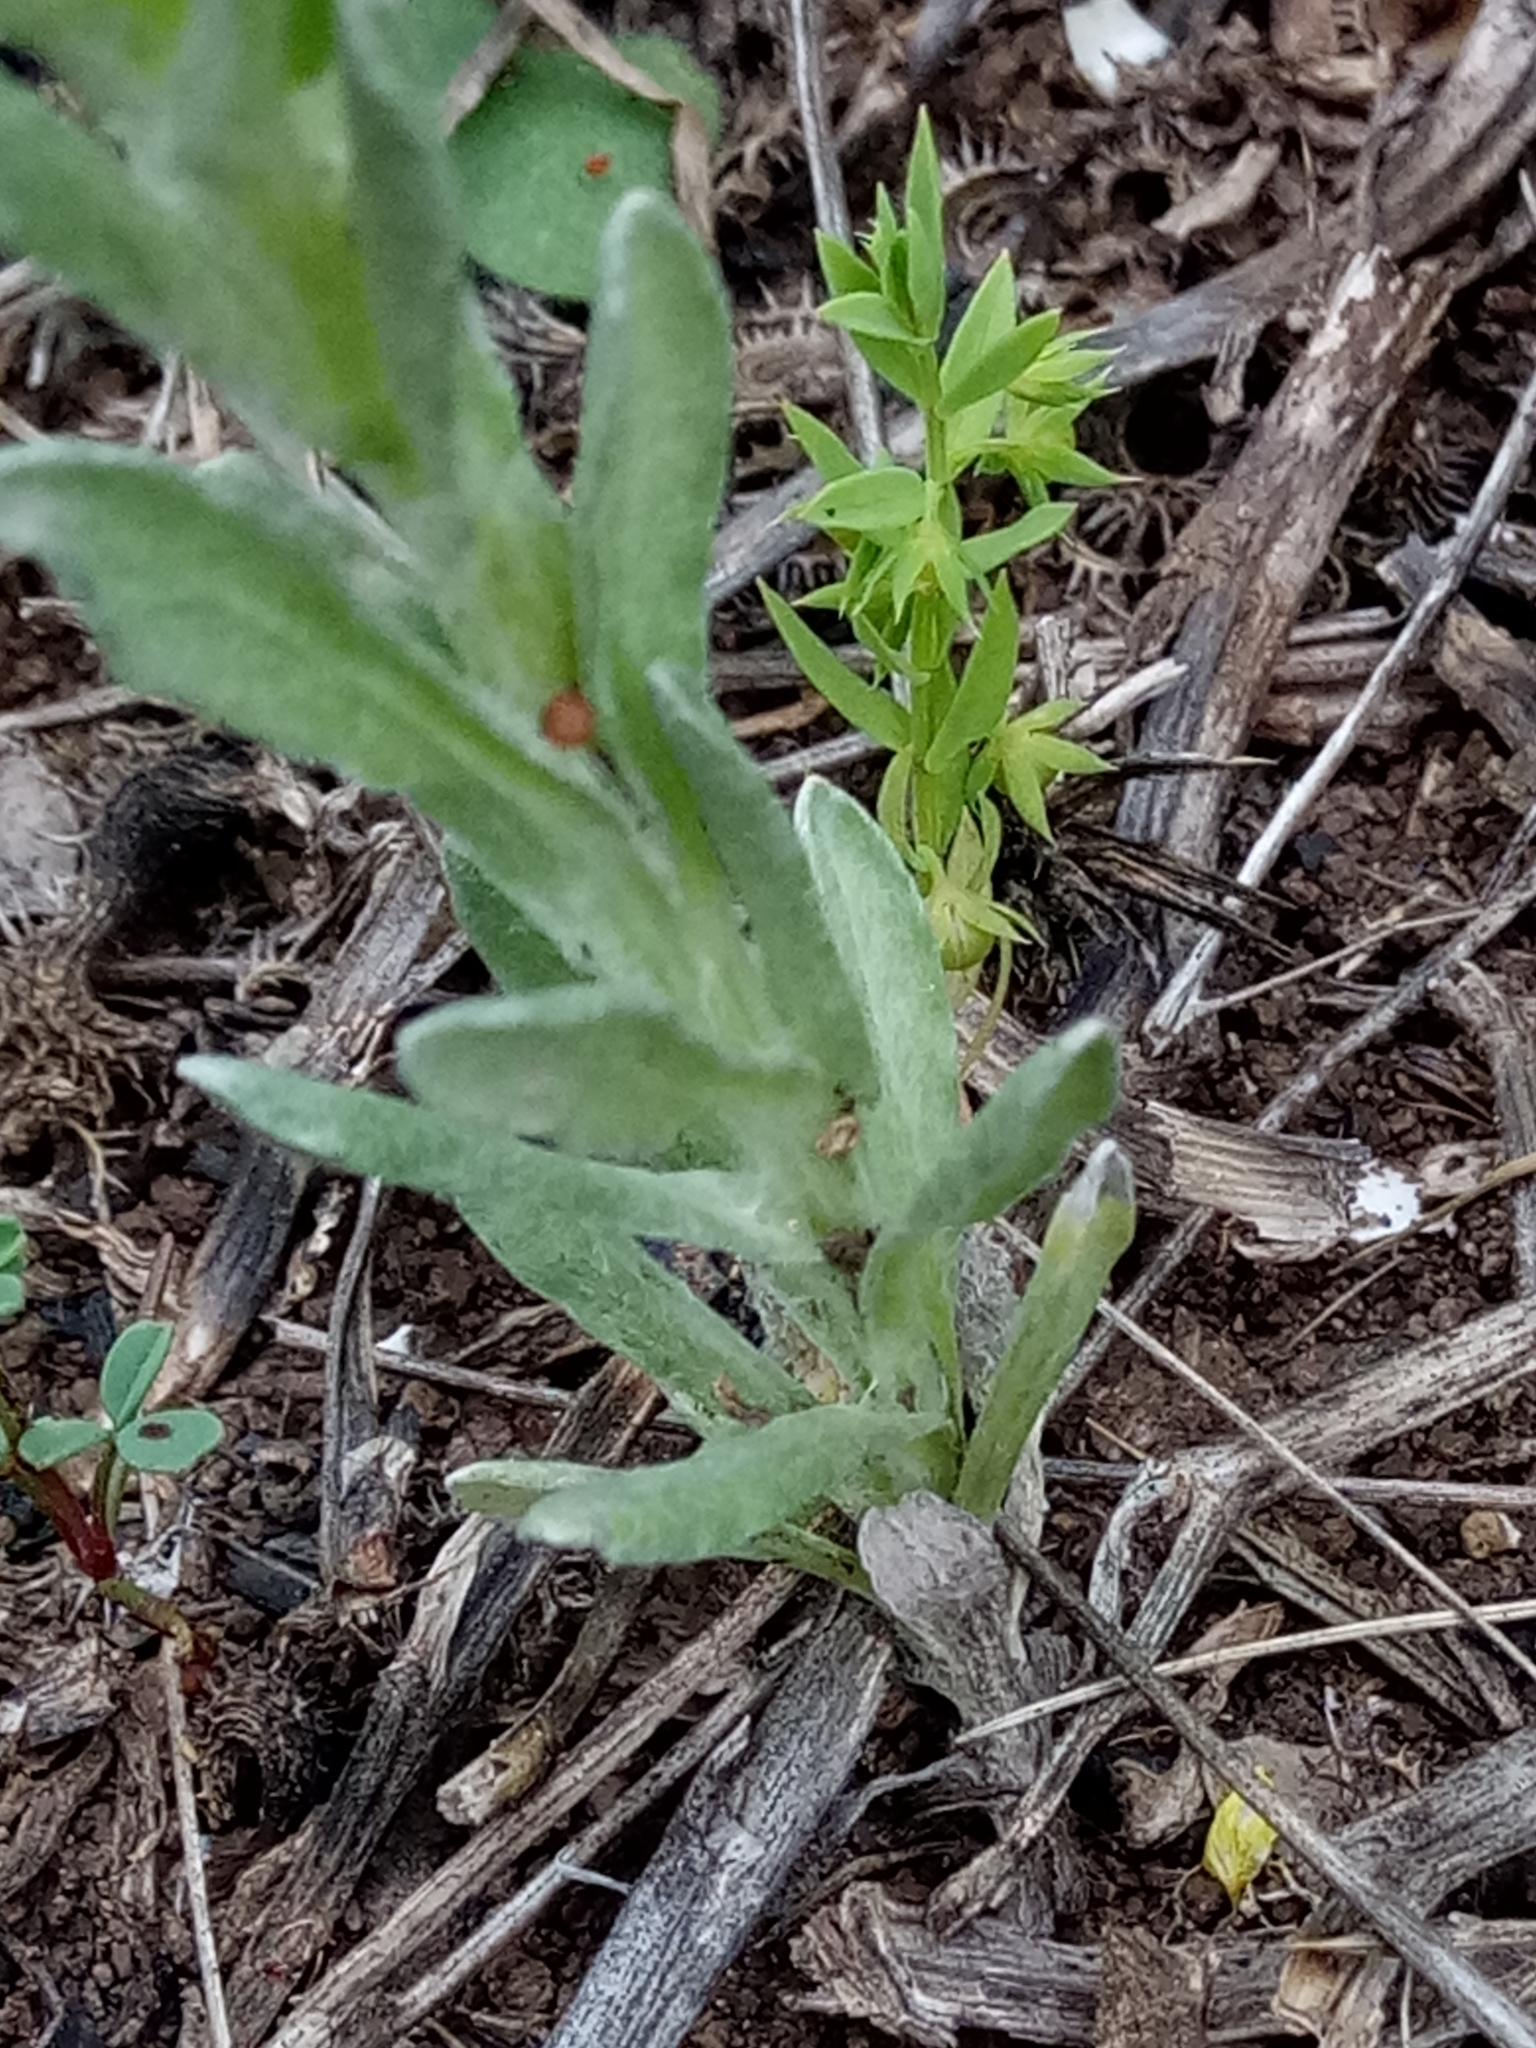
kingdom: Plantae
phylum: Tracheophyta
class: Magnoliopsida
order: Asterales
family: Asteraceae
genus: Bombycilaena
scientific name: Bombycilaena discolor
